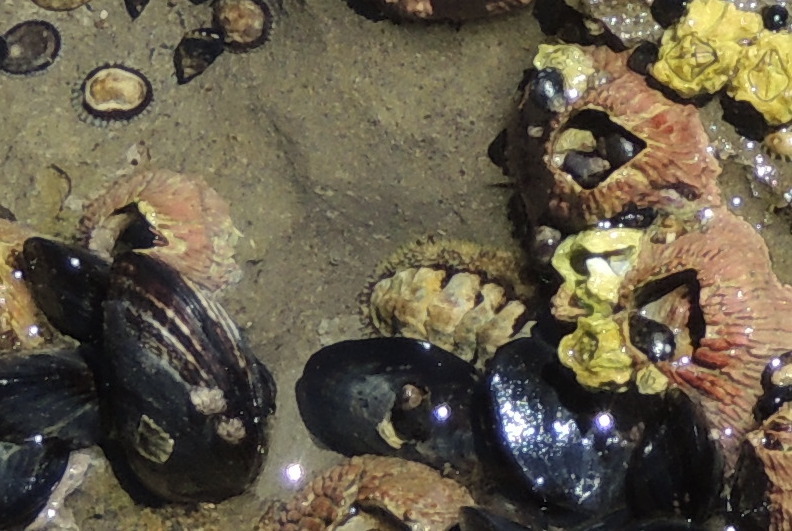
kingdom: Animalia
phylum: Mollusca
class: Polyplacophora
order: Chitonida
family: Tonicellidae
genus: Nuttallina
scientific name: Nuttallina californica
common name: California nuttall chiton
